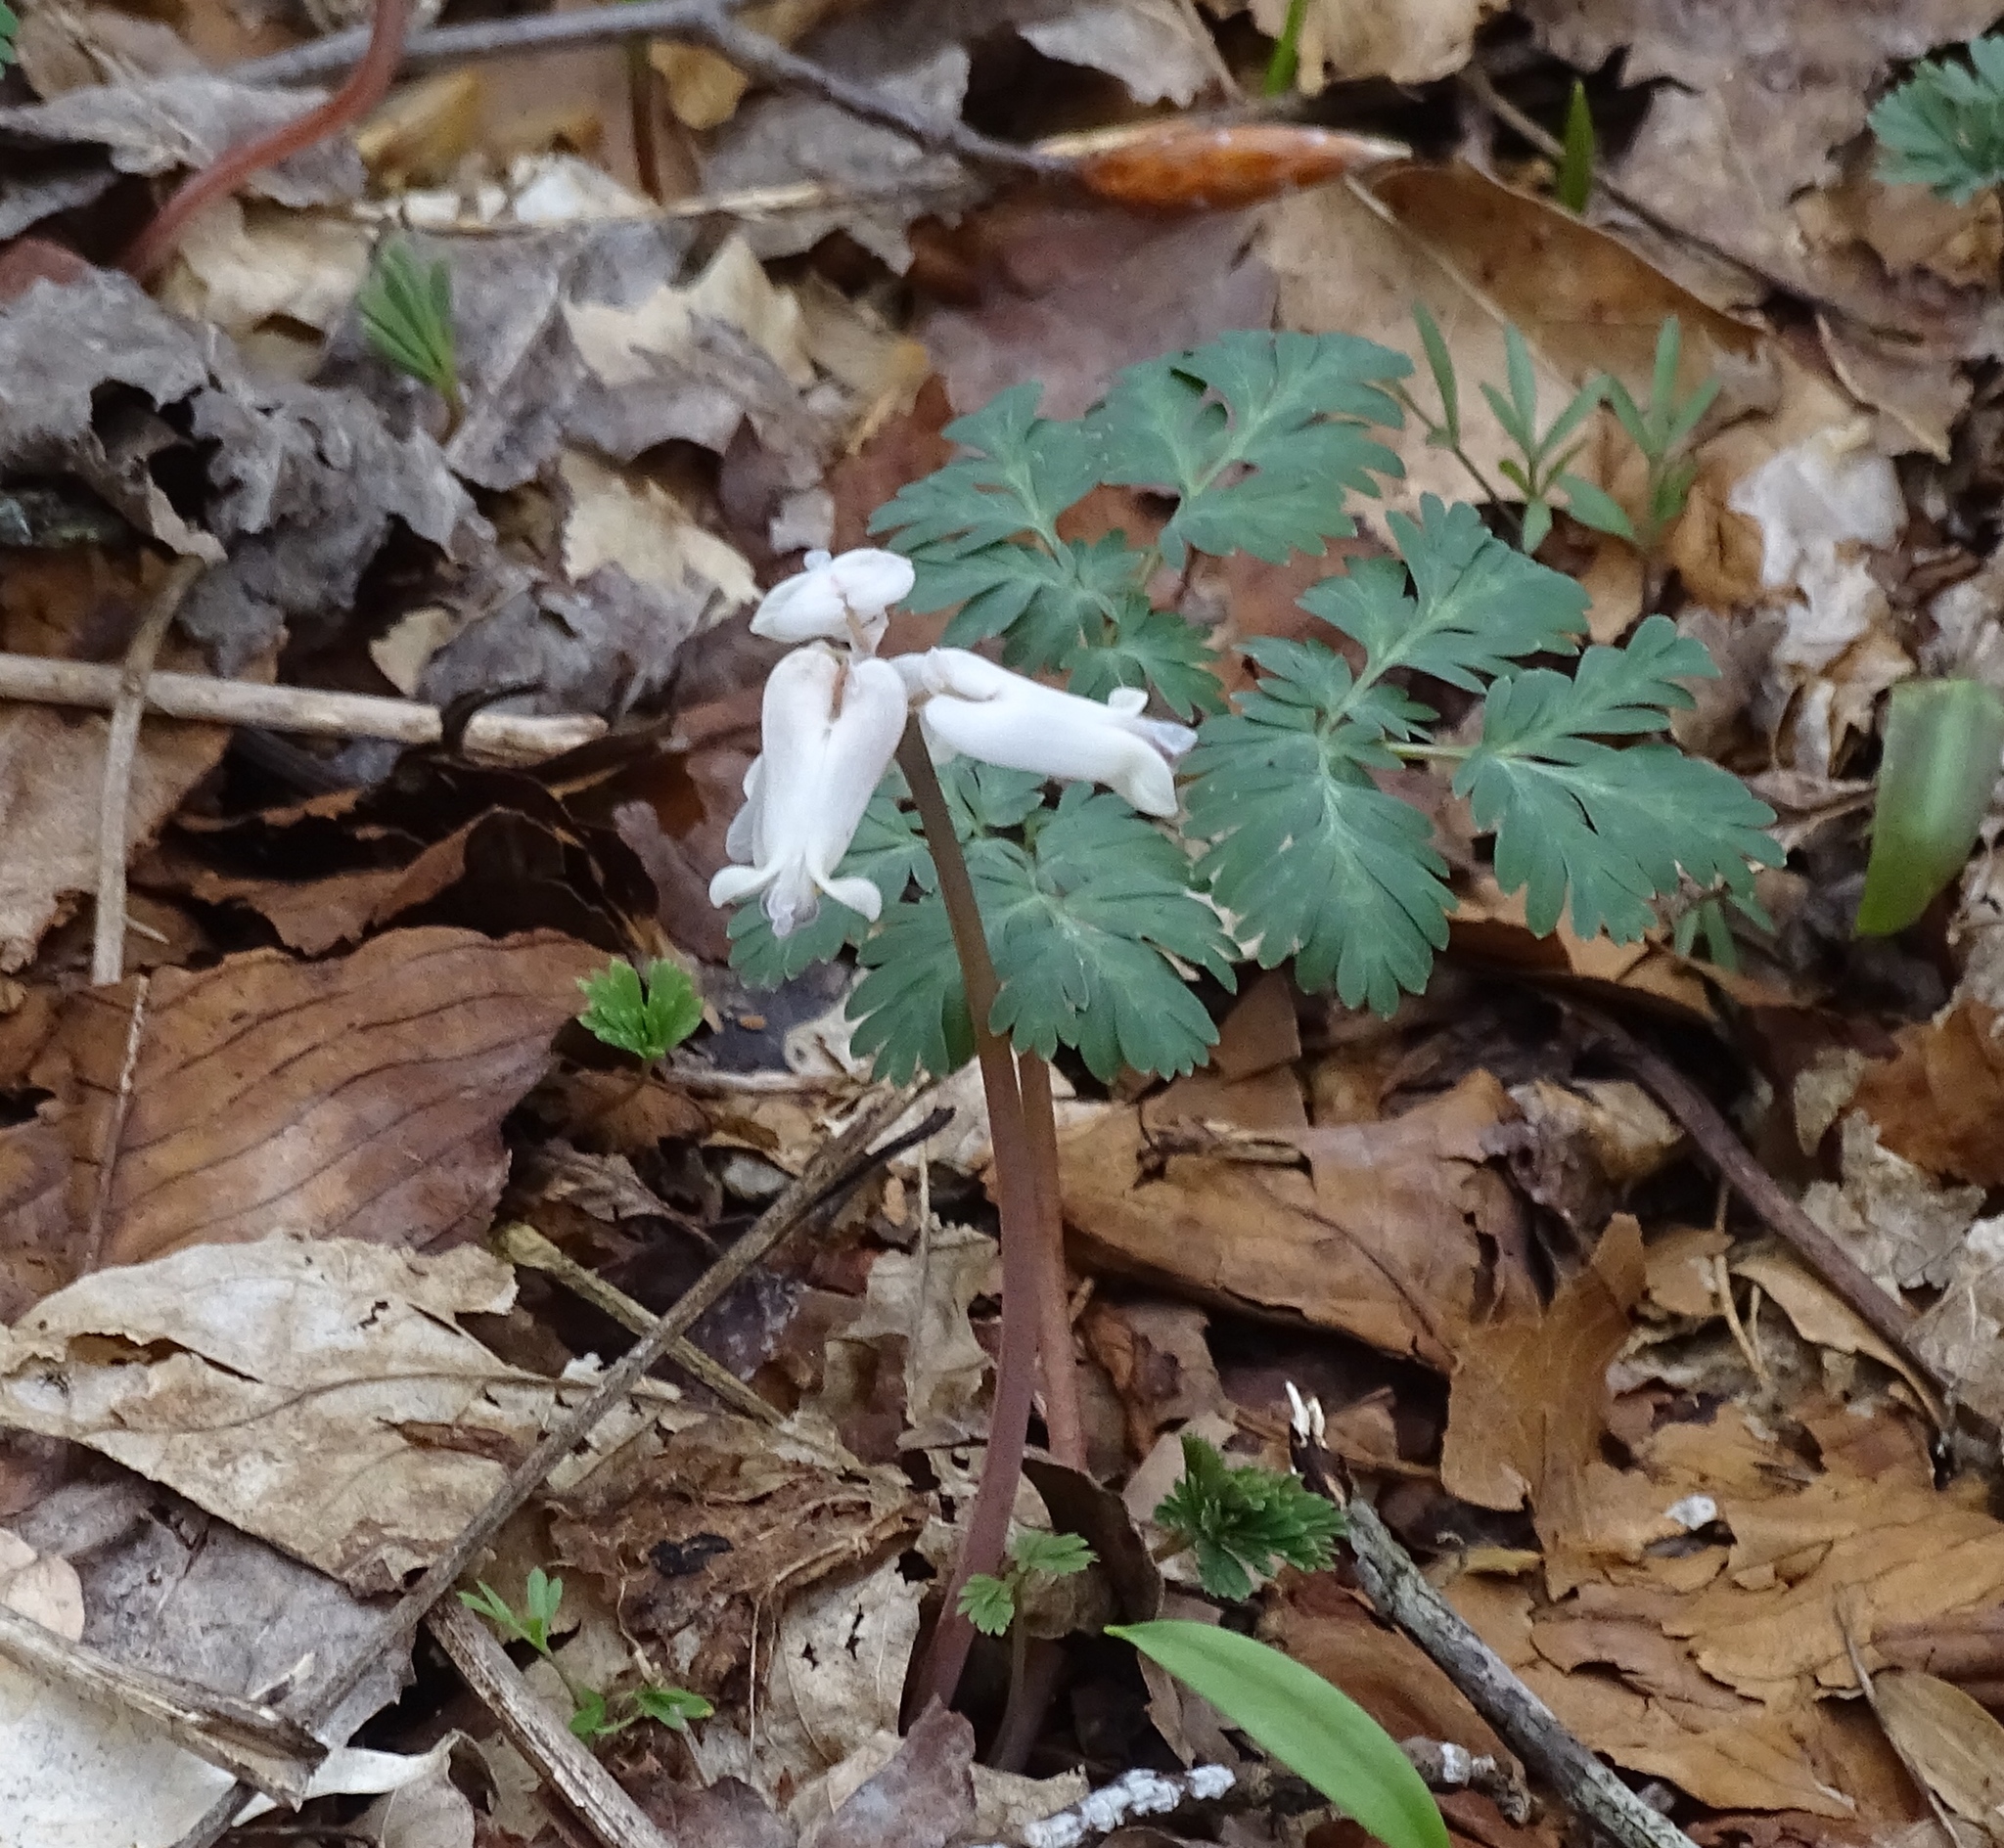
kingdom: Plantae
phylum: Tracheophyta
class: Magnoliopsida
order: Ranunculales
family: Papaveraceae
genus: Dicentra
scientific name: Dicentra canadensis
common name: Squirrel-corn
